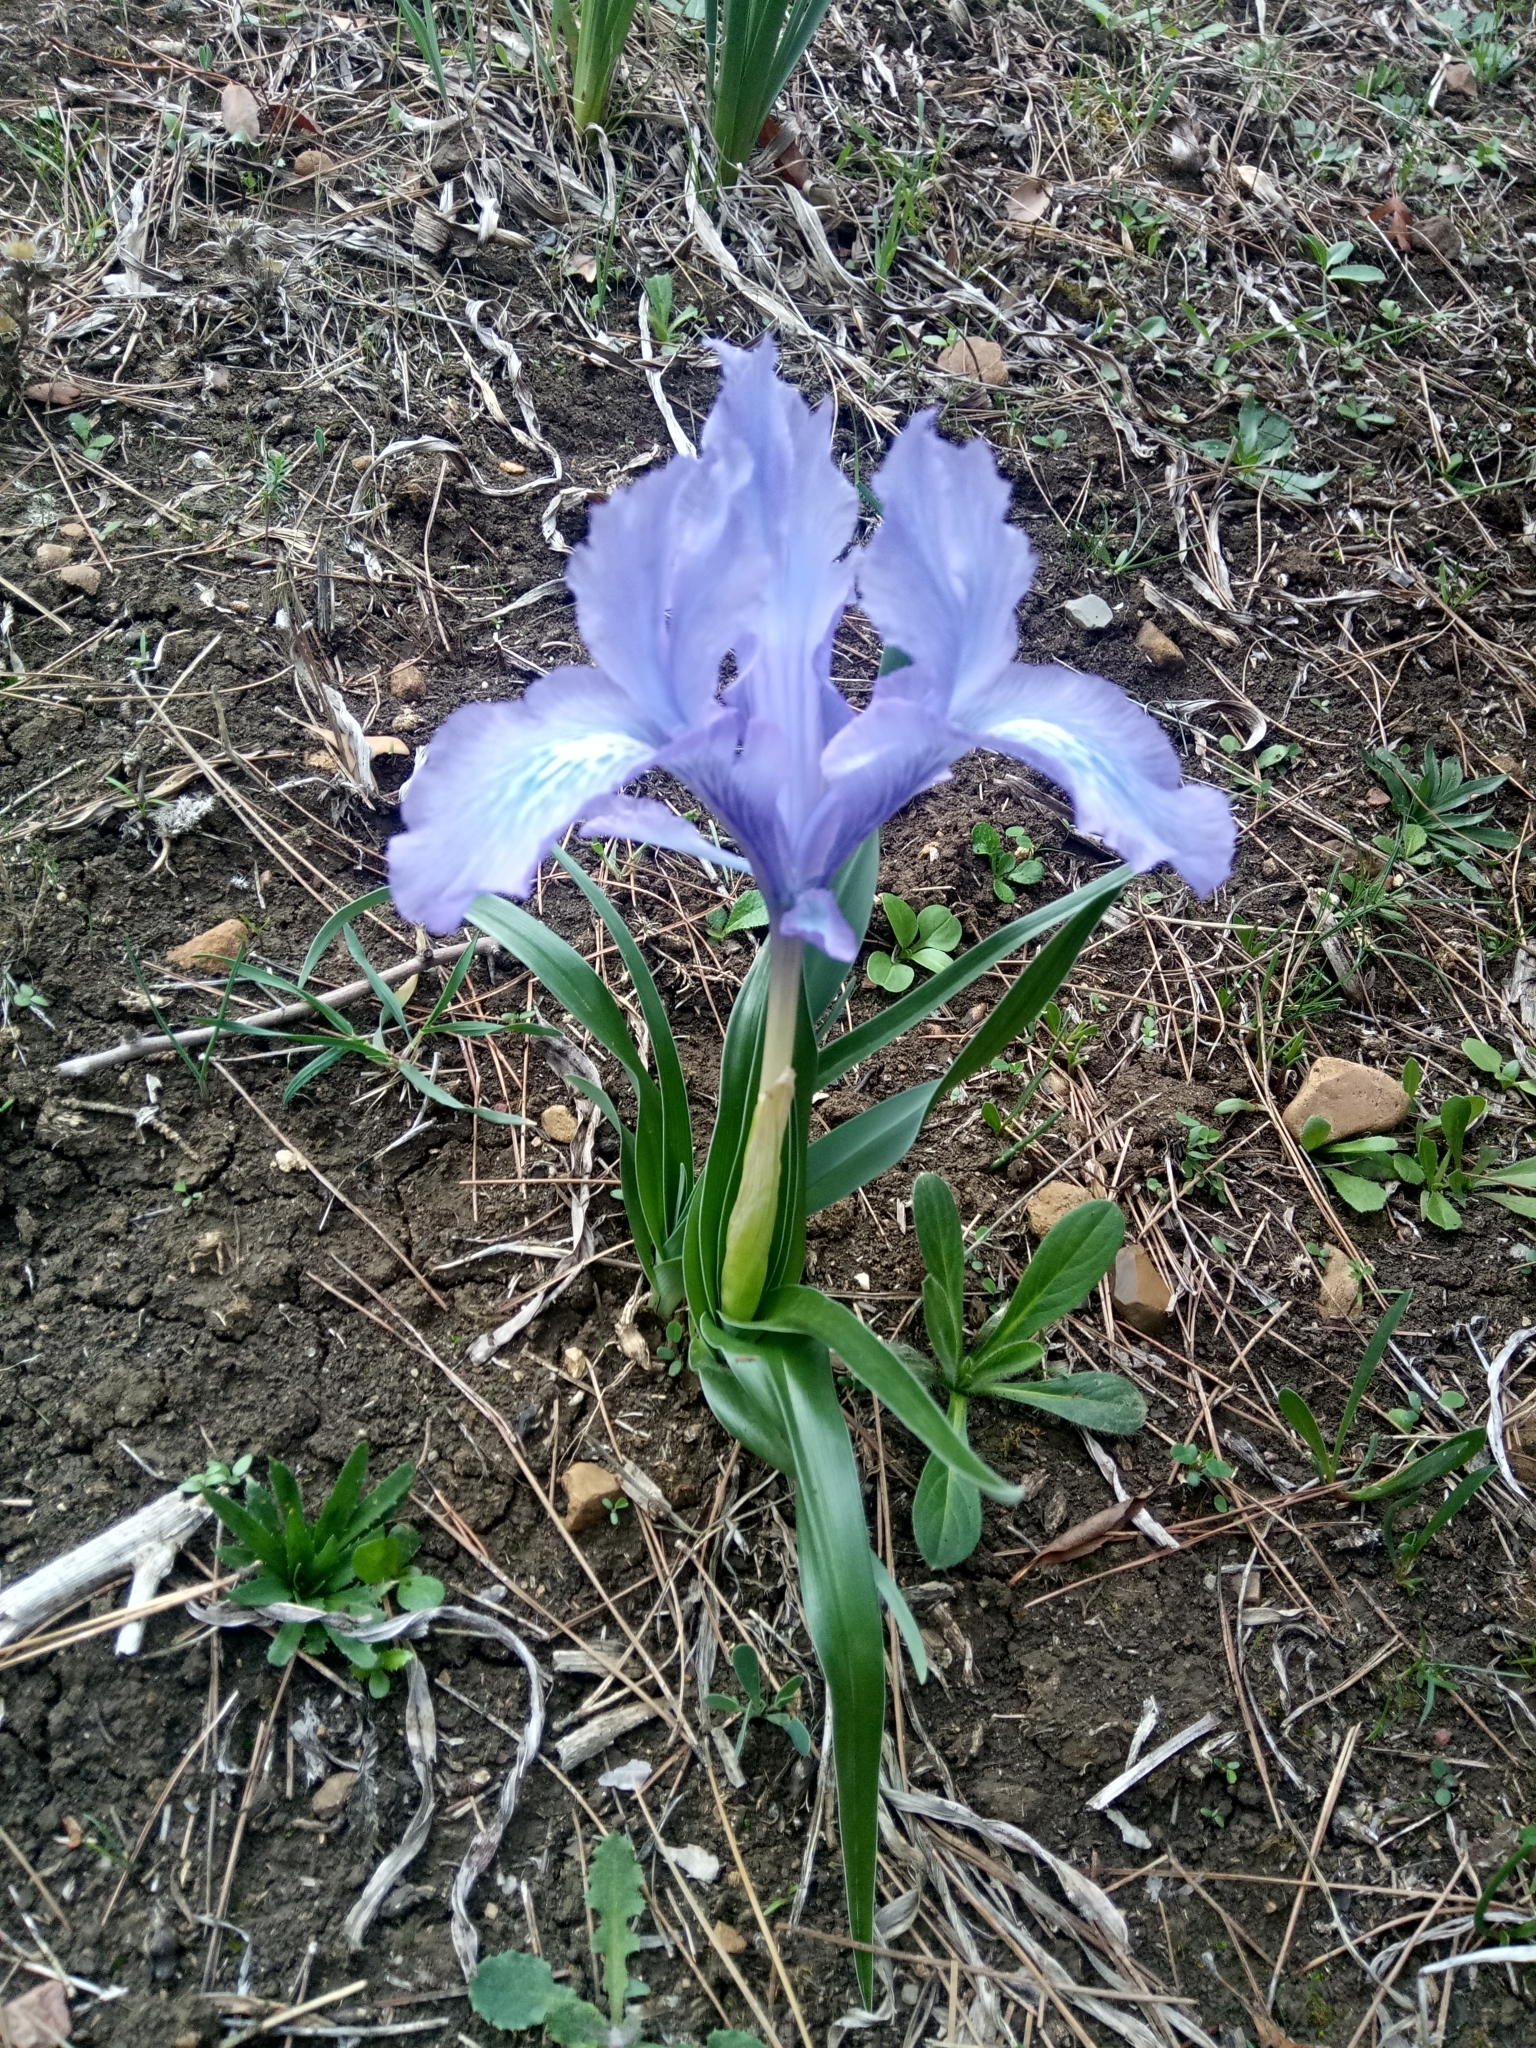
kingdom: Plantae
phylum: Tracheophyta
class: Liliopsida
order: Asparagales
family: Iridaceae
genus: Iris
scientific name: Iris planifolia
